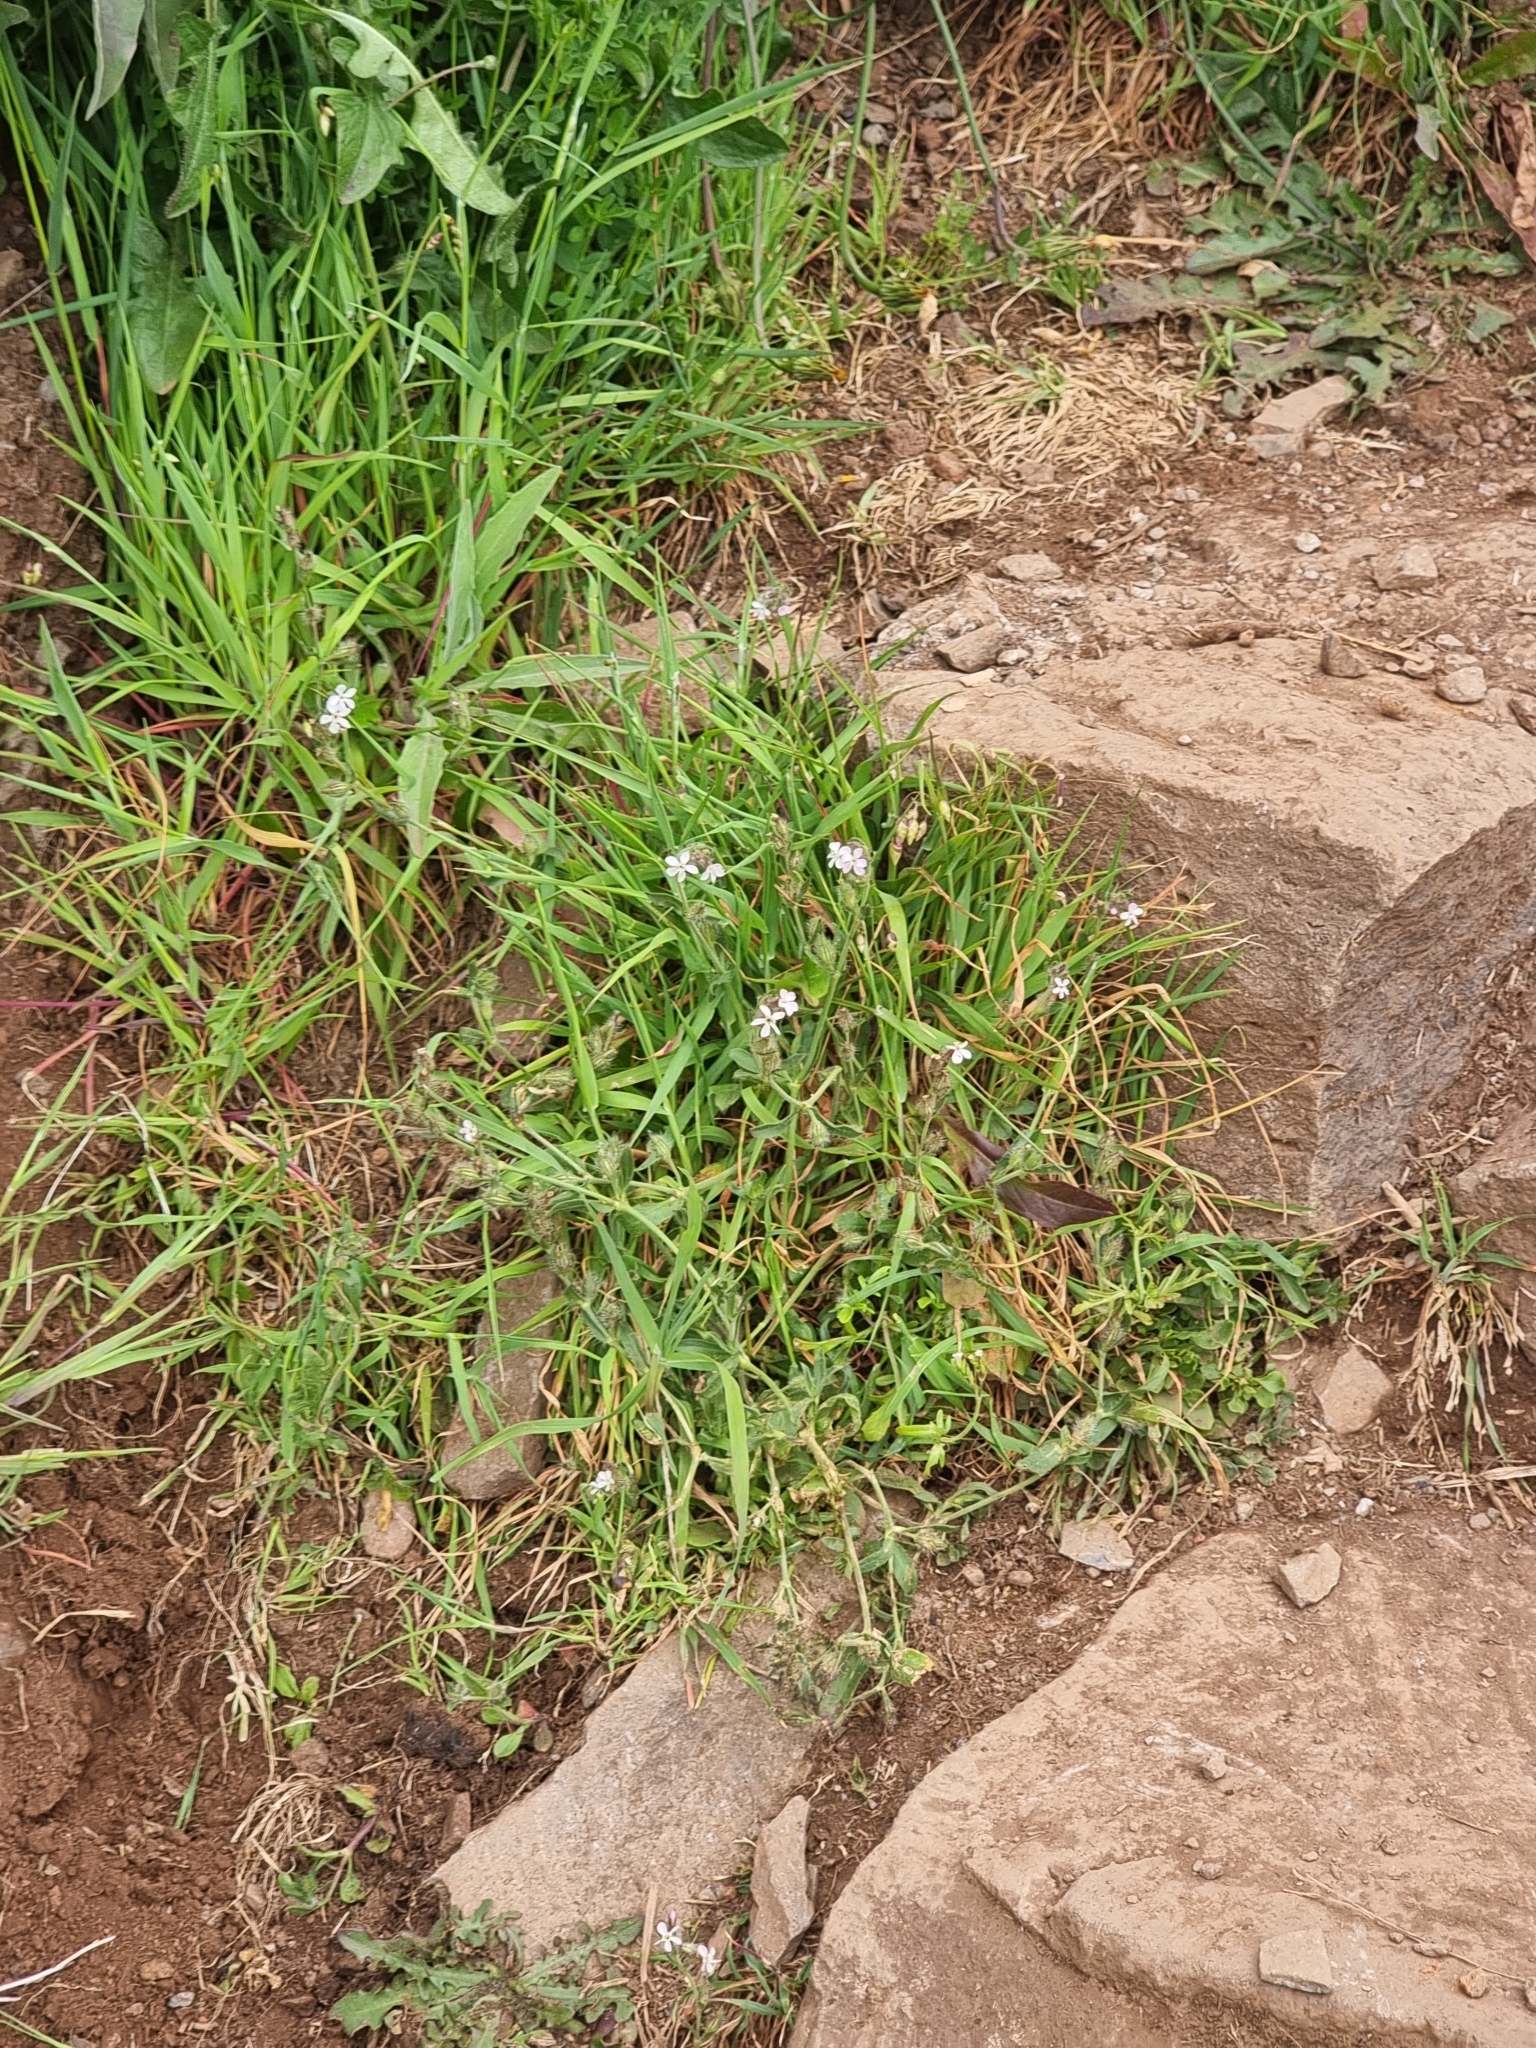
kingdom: Plantae
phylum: Tracheophyta
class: Magnoliopsida
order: Caryophyllales
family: Caryophyllaceae
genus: Silene
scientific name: Silene gallica
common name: Small-flowered catchfly
